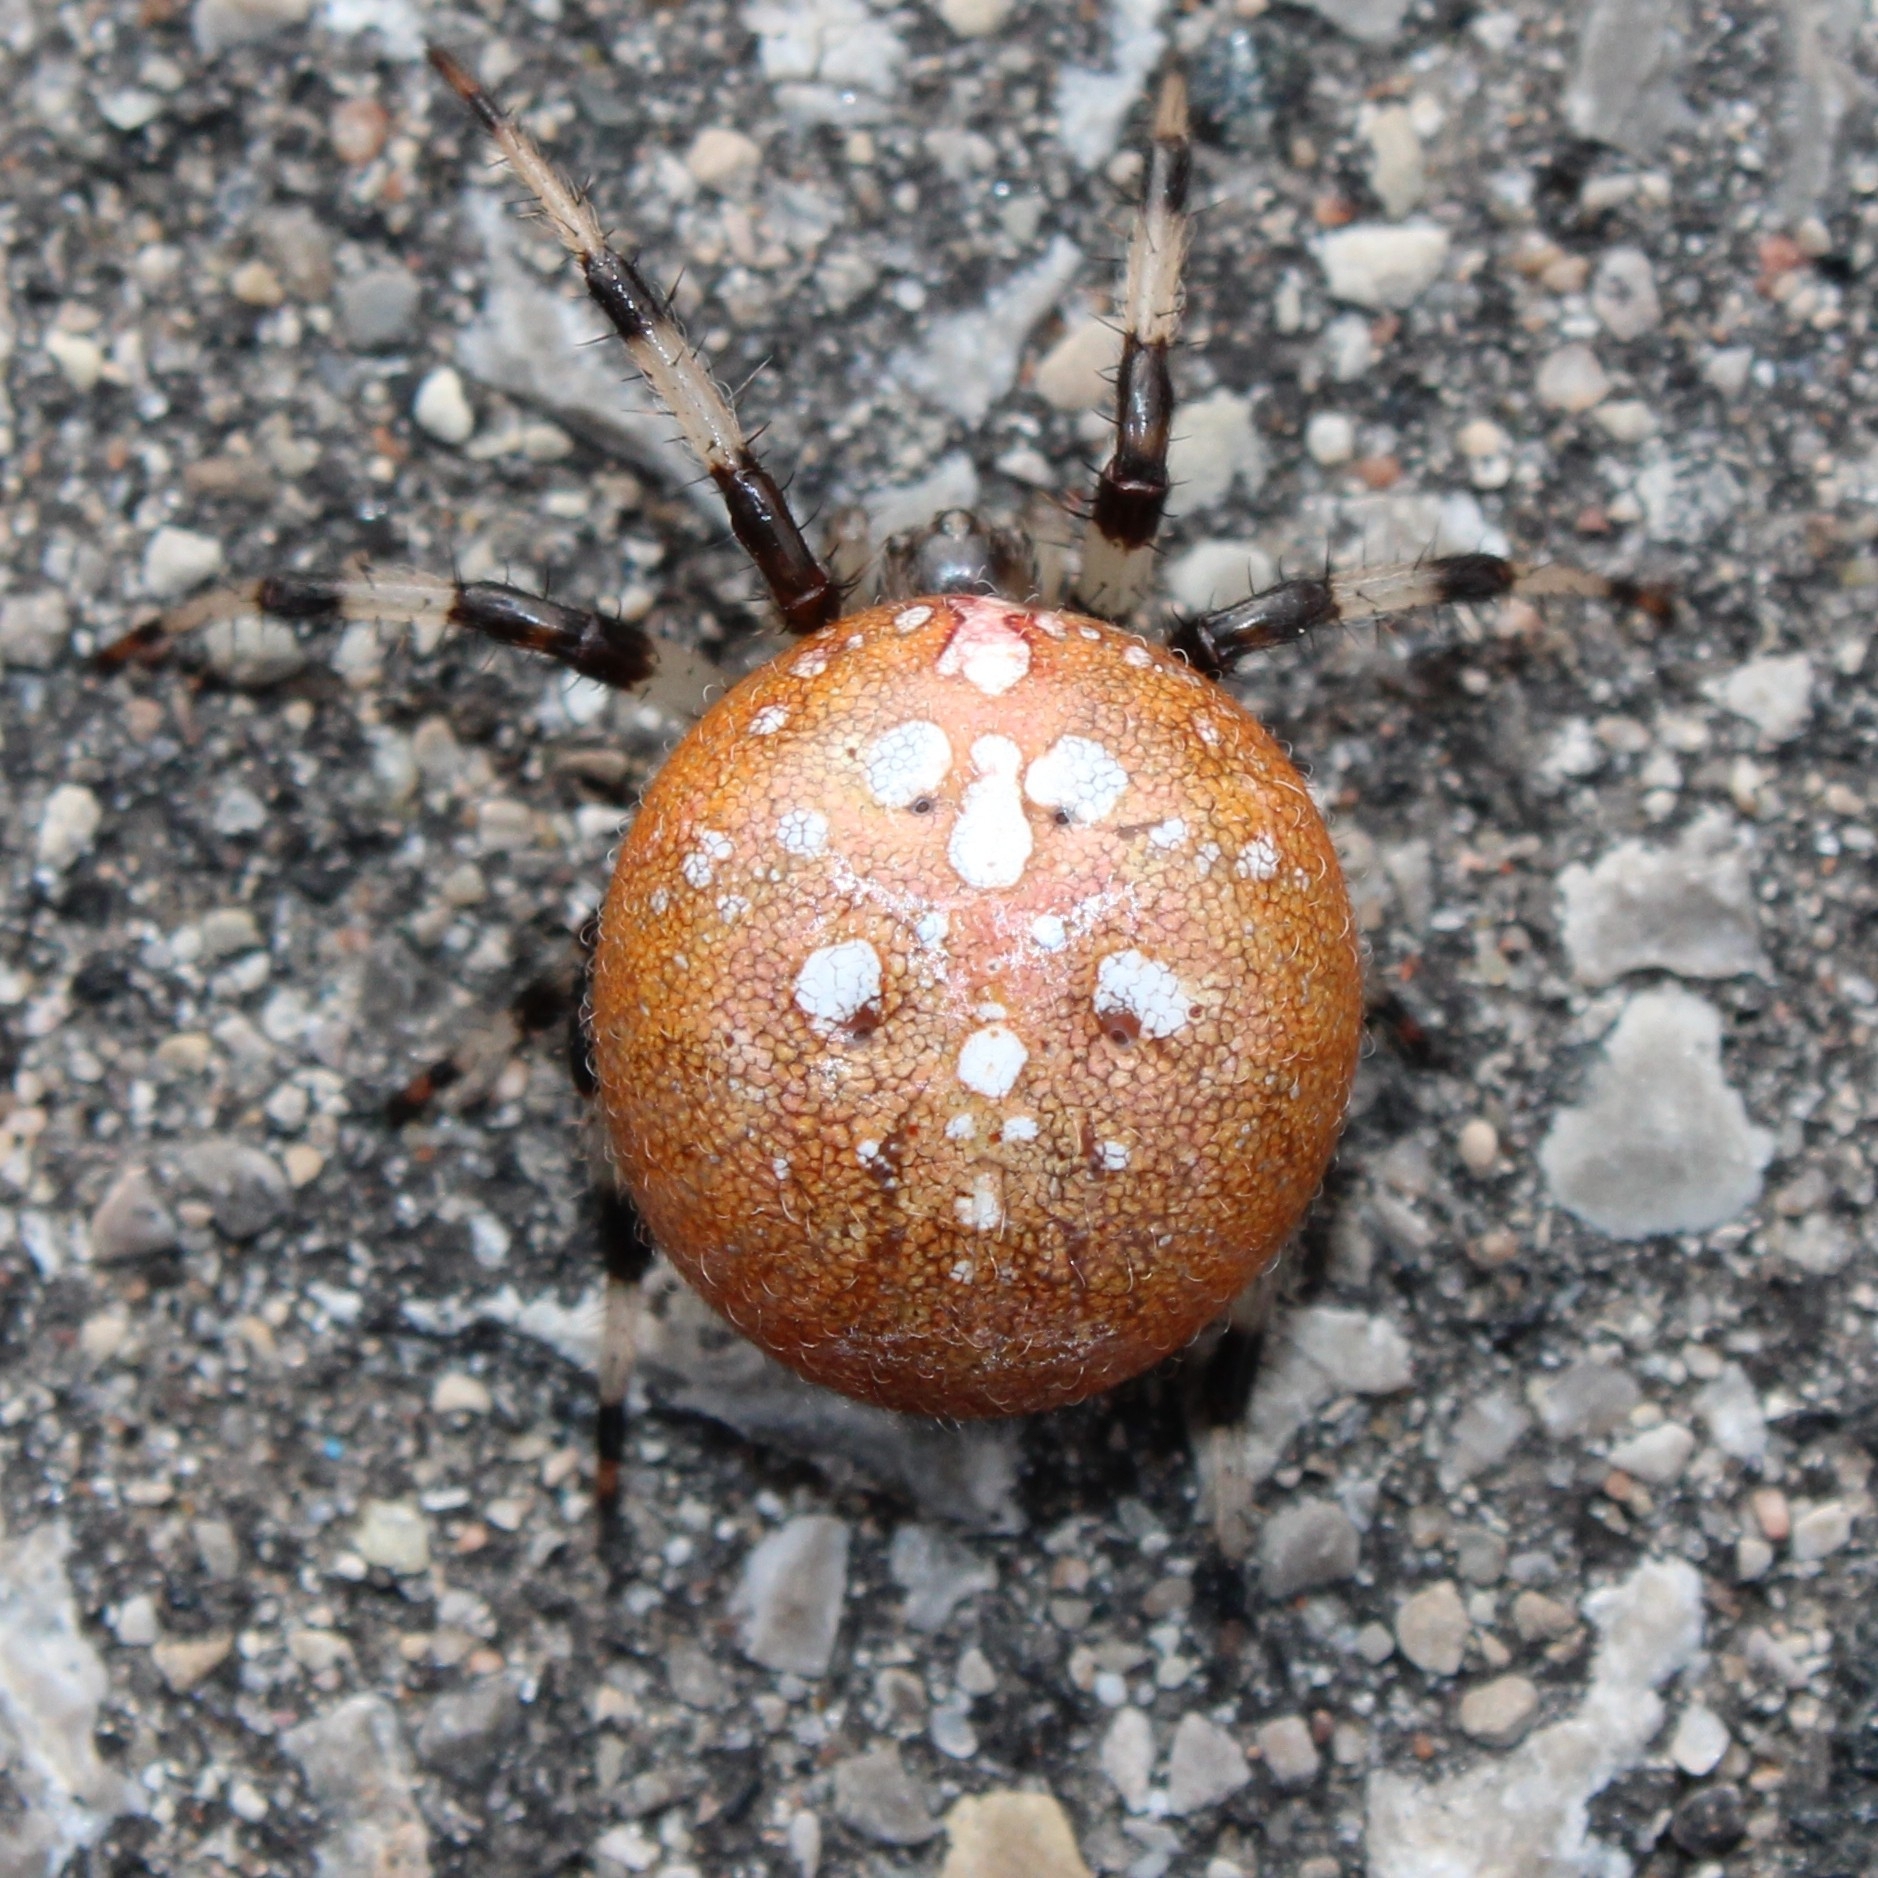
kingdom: Animalia
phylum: Arthropoda
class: Arachnida
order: Araneae
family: Araneidae
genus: Araneus
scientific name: Araneus trifolium
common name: Shamrock orbweaver
